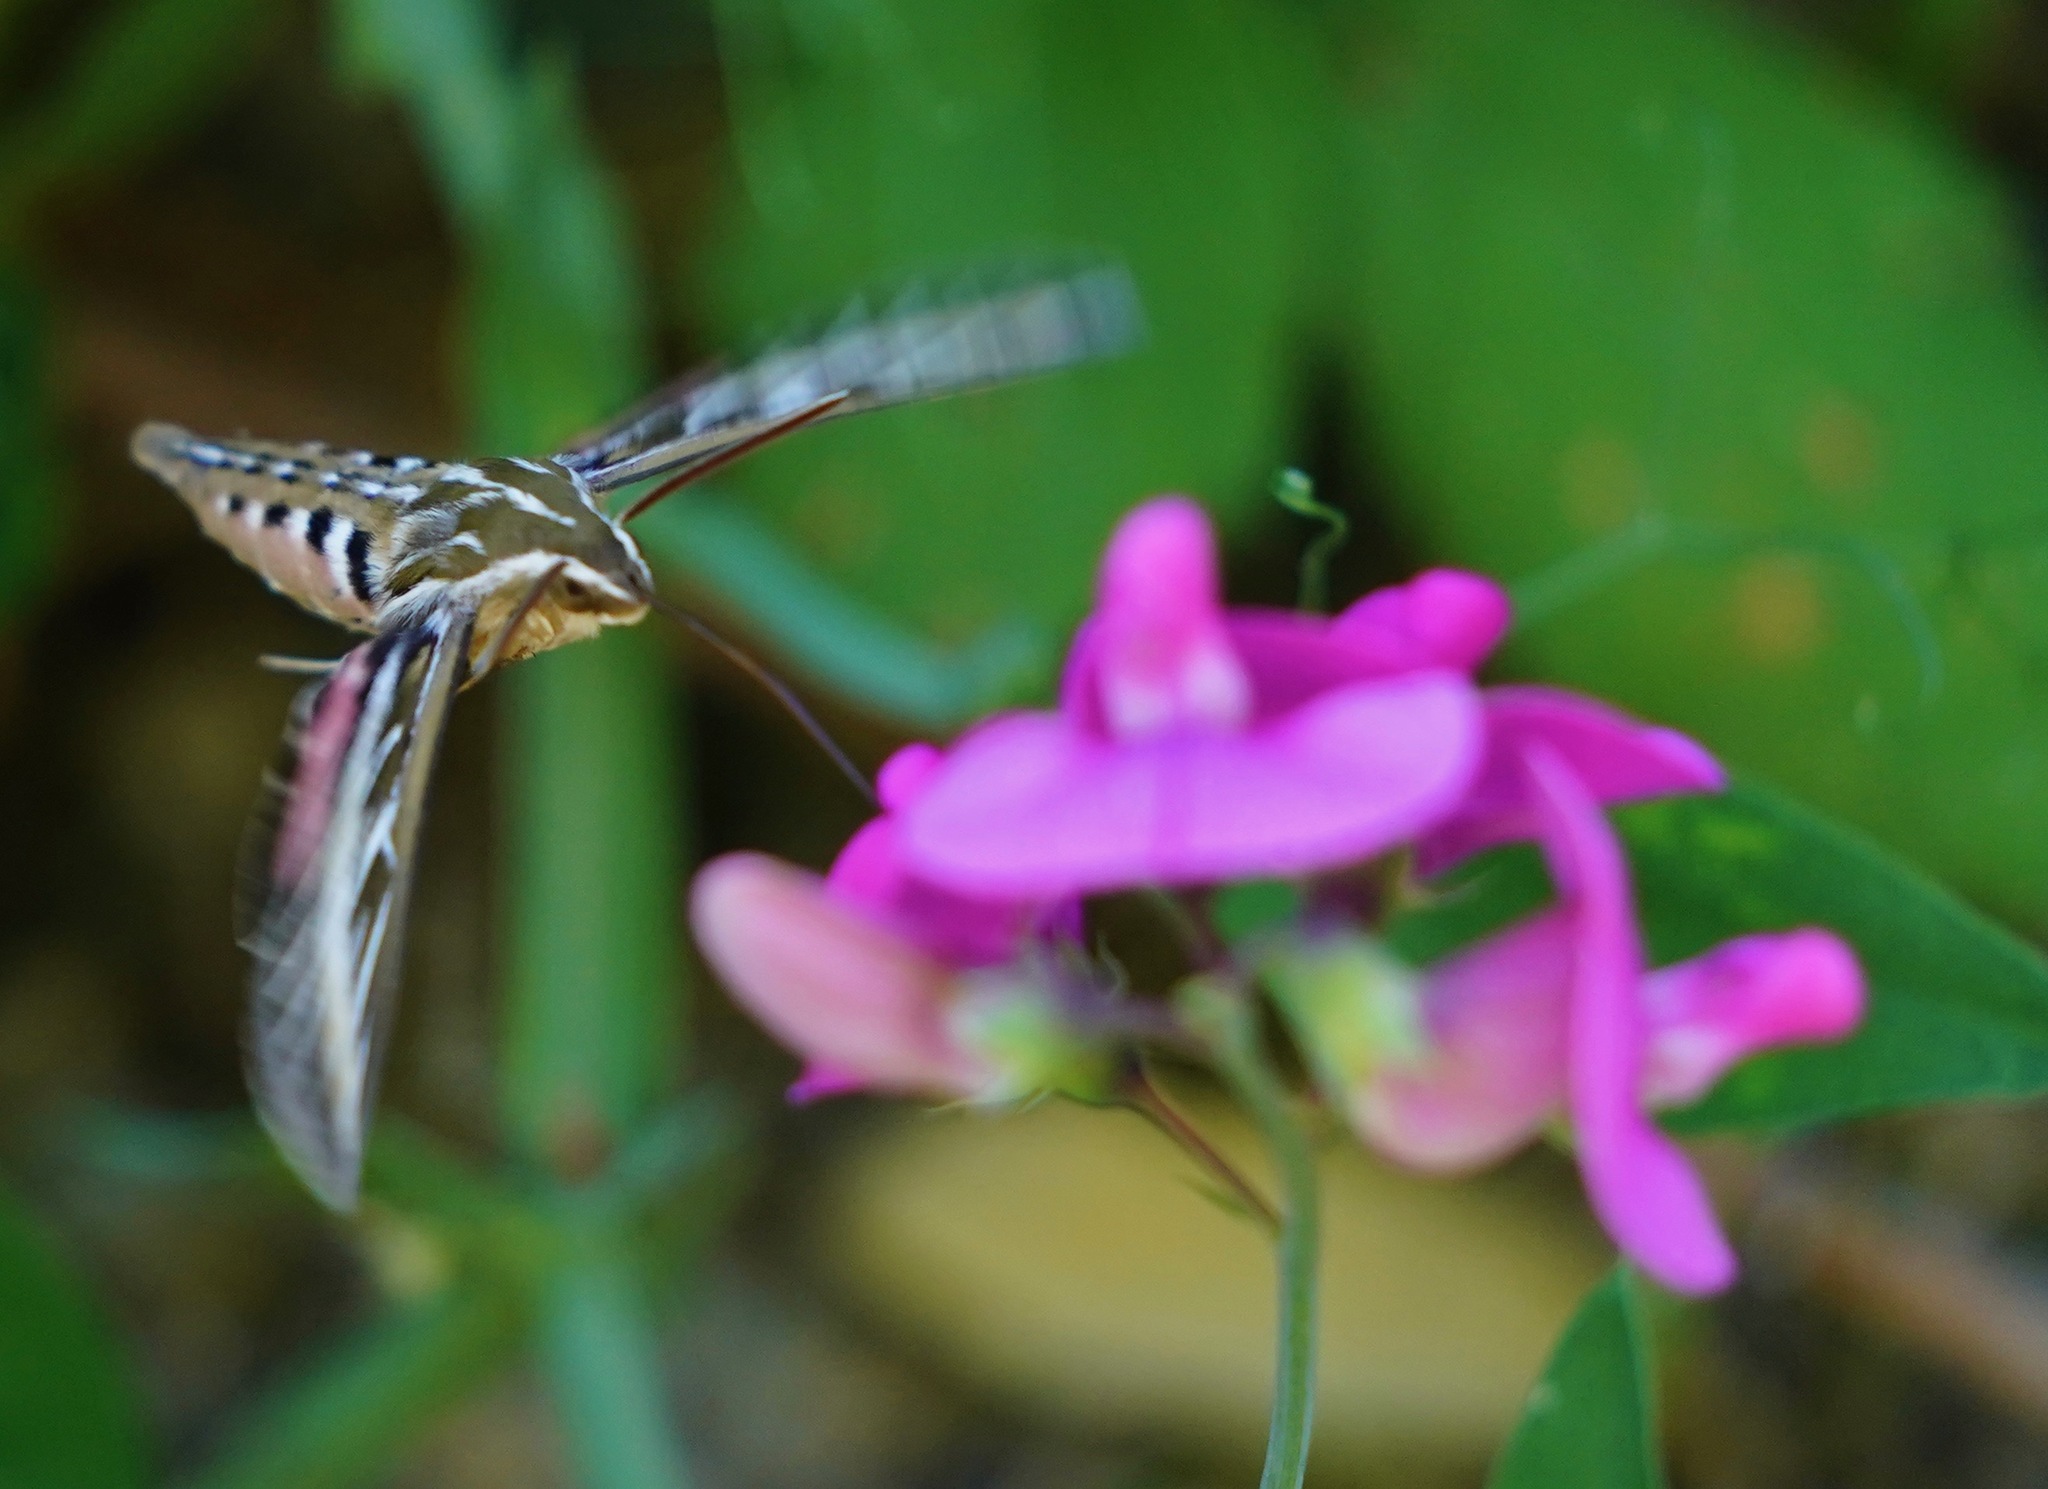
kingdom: Animalia
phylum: Arthropoda
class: Insecta
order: Lepidoptera
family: Sphingidae
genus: Hyles
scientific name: Hyles lineata
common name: White-lined sphinx
